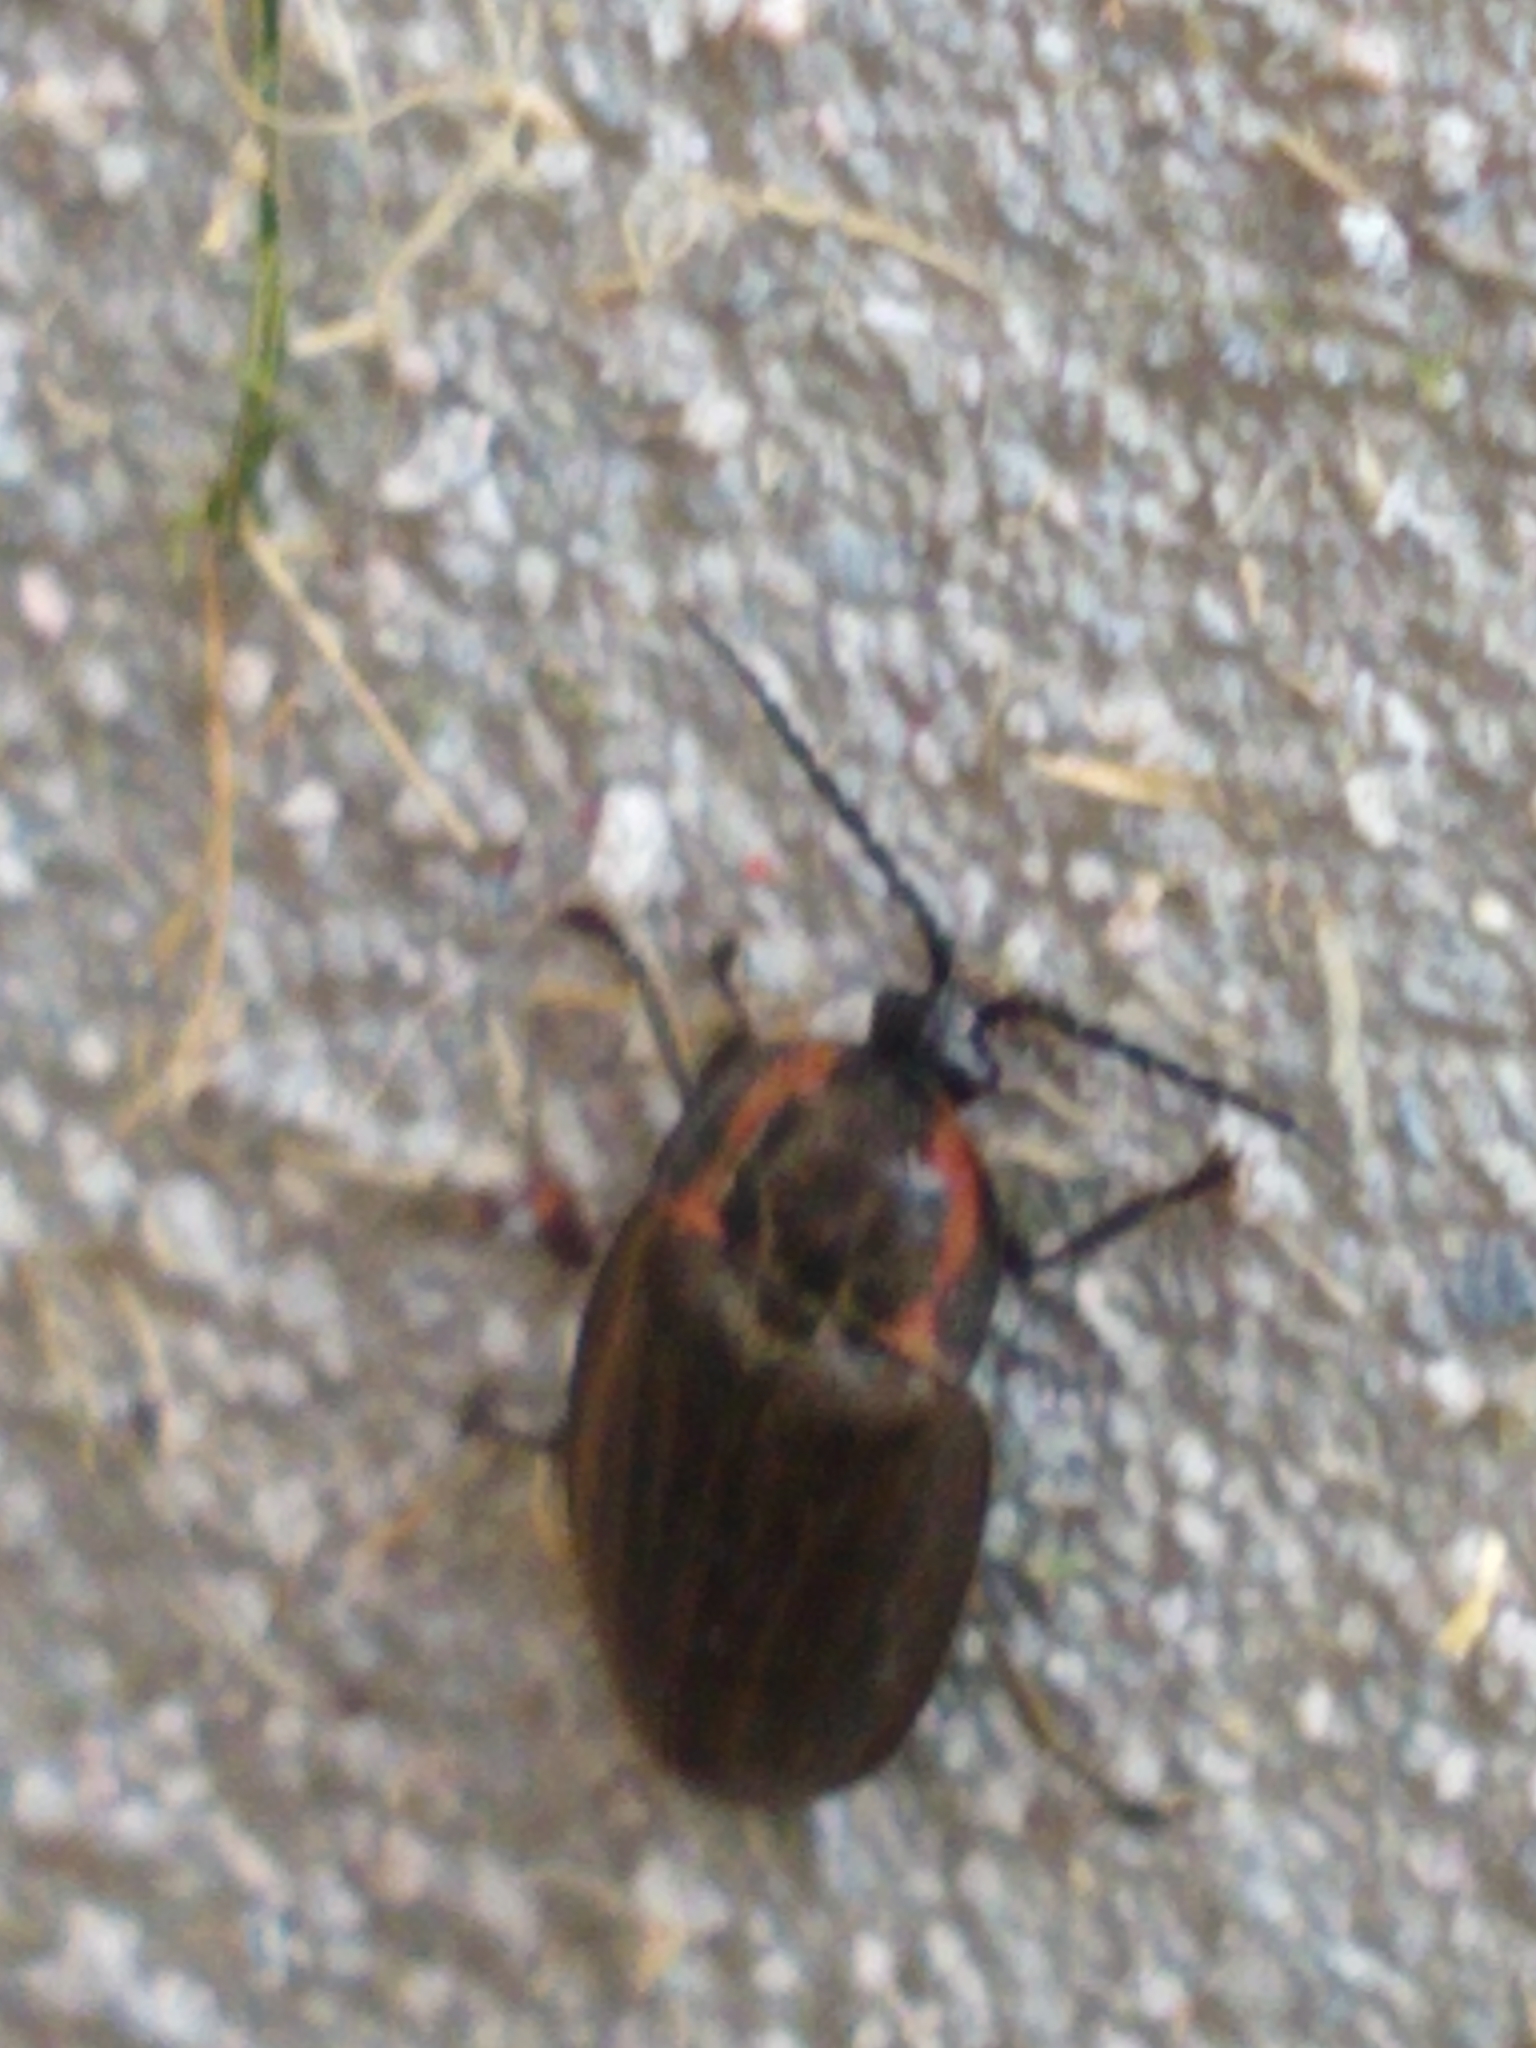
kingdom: Animalia
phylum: Arthropoda
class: Insecta
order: Coleoptera
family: Lampyridae
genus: Photinus
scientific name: Photinus corrusca
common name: Winter firefly
